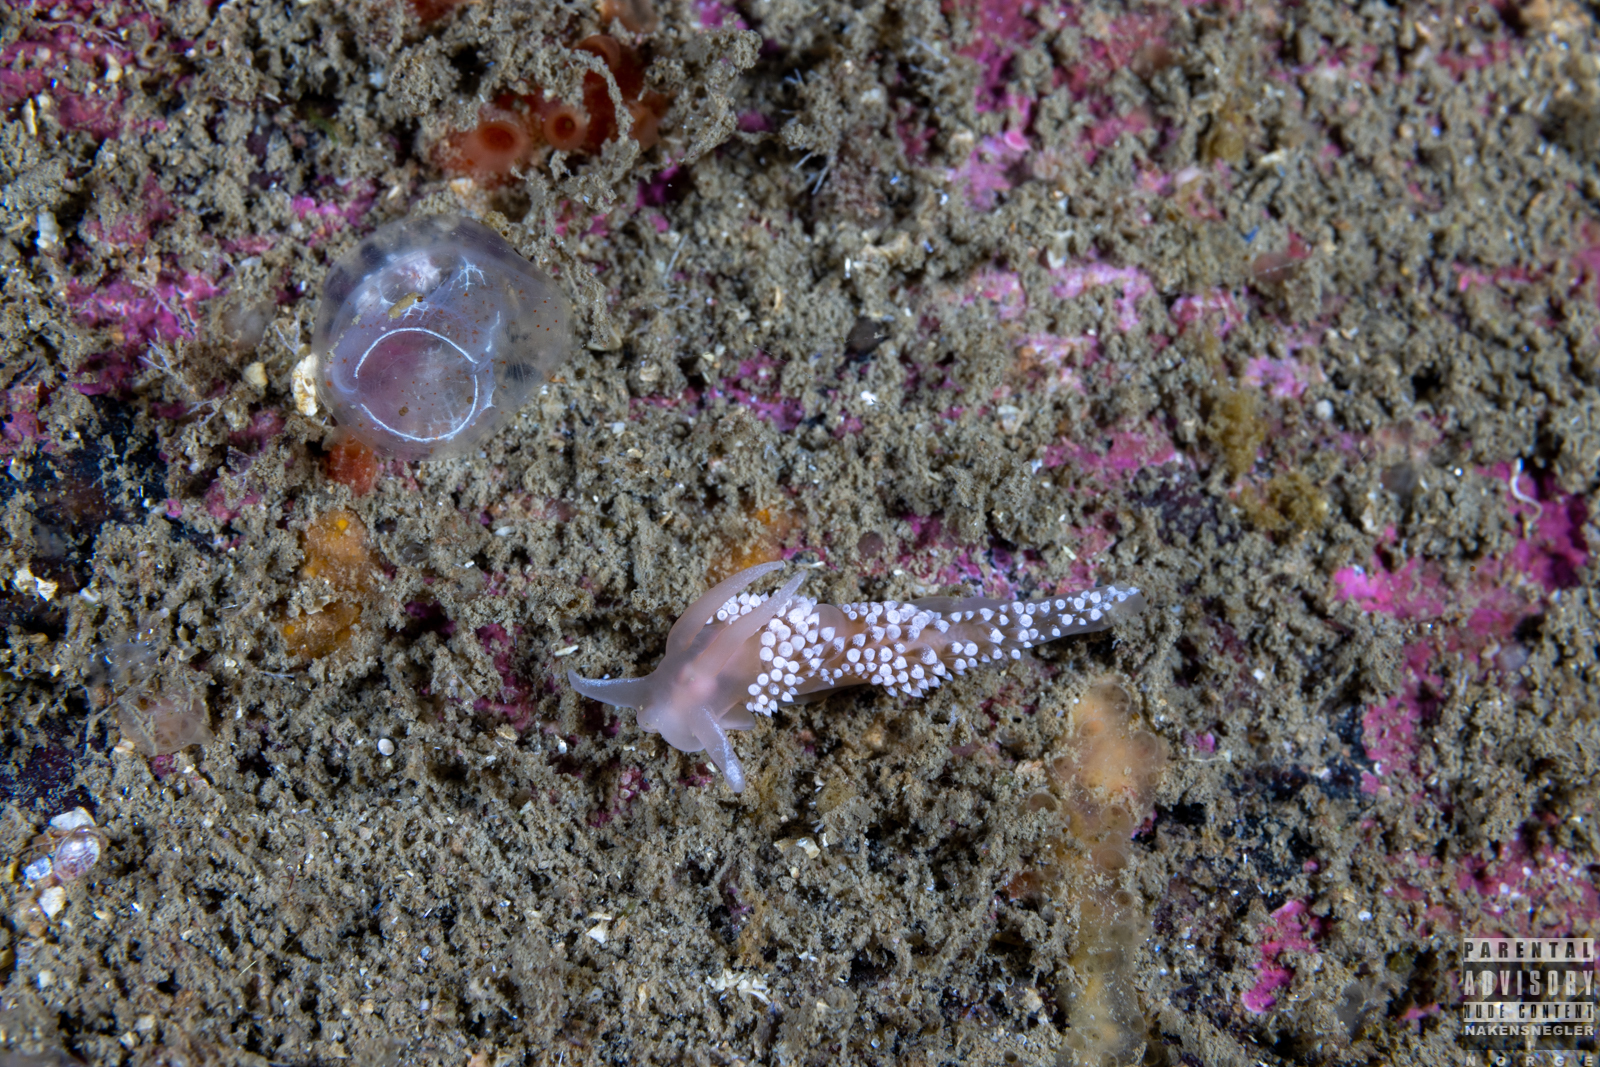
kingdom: Animalia
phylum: Mollusca
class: Gastropoda
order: Nudibranchia
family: Coryphellidae
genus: Coryphella
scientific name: Coryphella verrucosa
